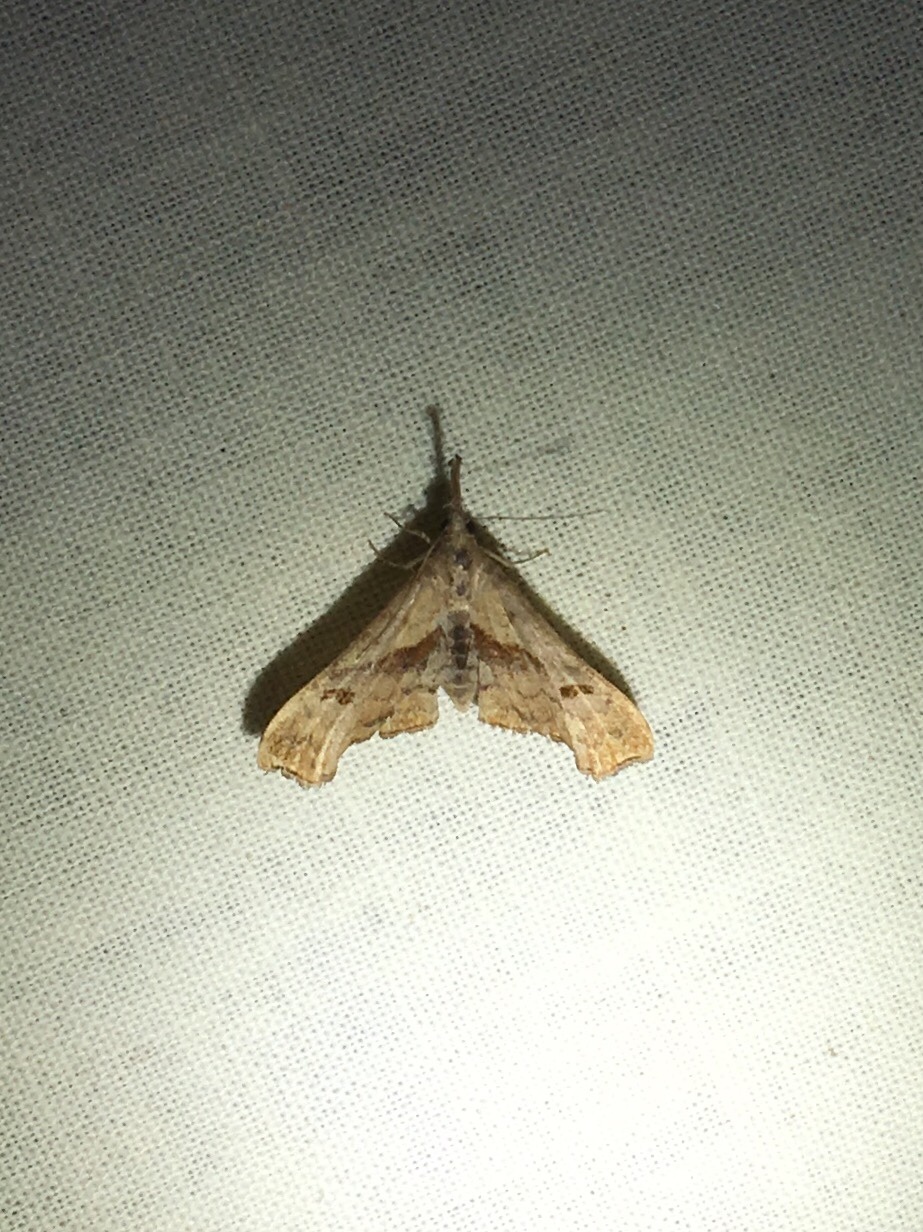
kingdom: Animalia
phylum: Arthropoda
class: Insecta
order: Lepidoptera
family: Erebidae
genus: Palthis
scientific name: Palthis angulalis
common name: Dark-spotted palthis moth
